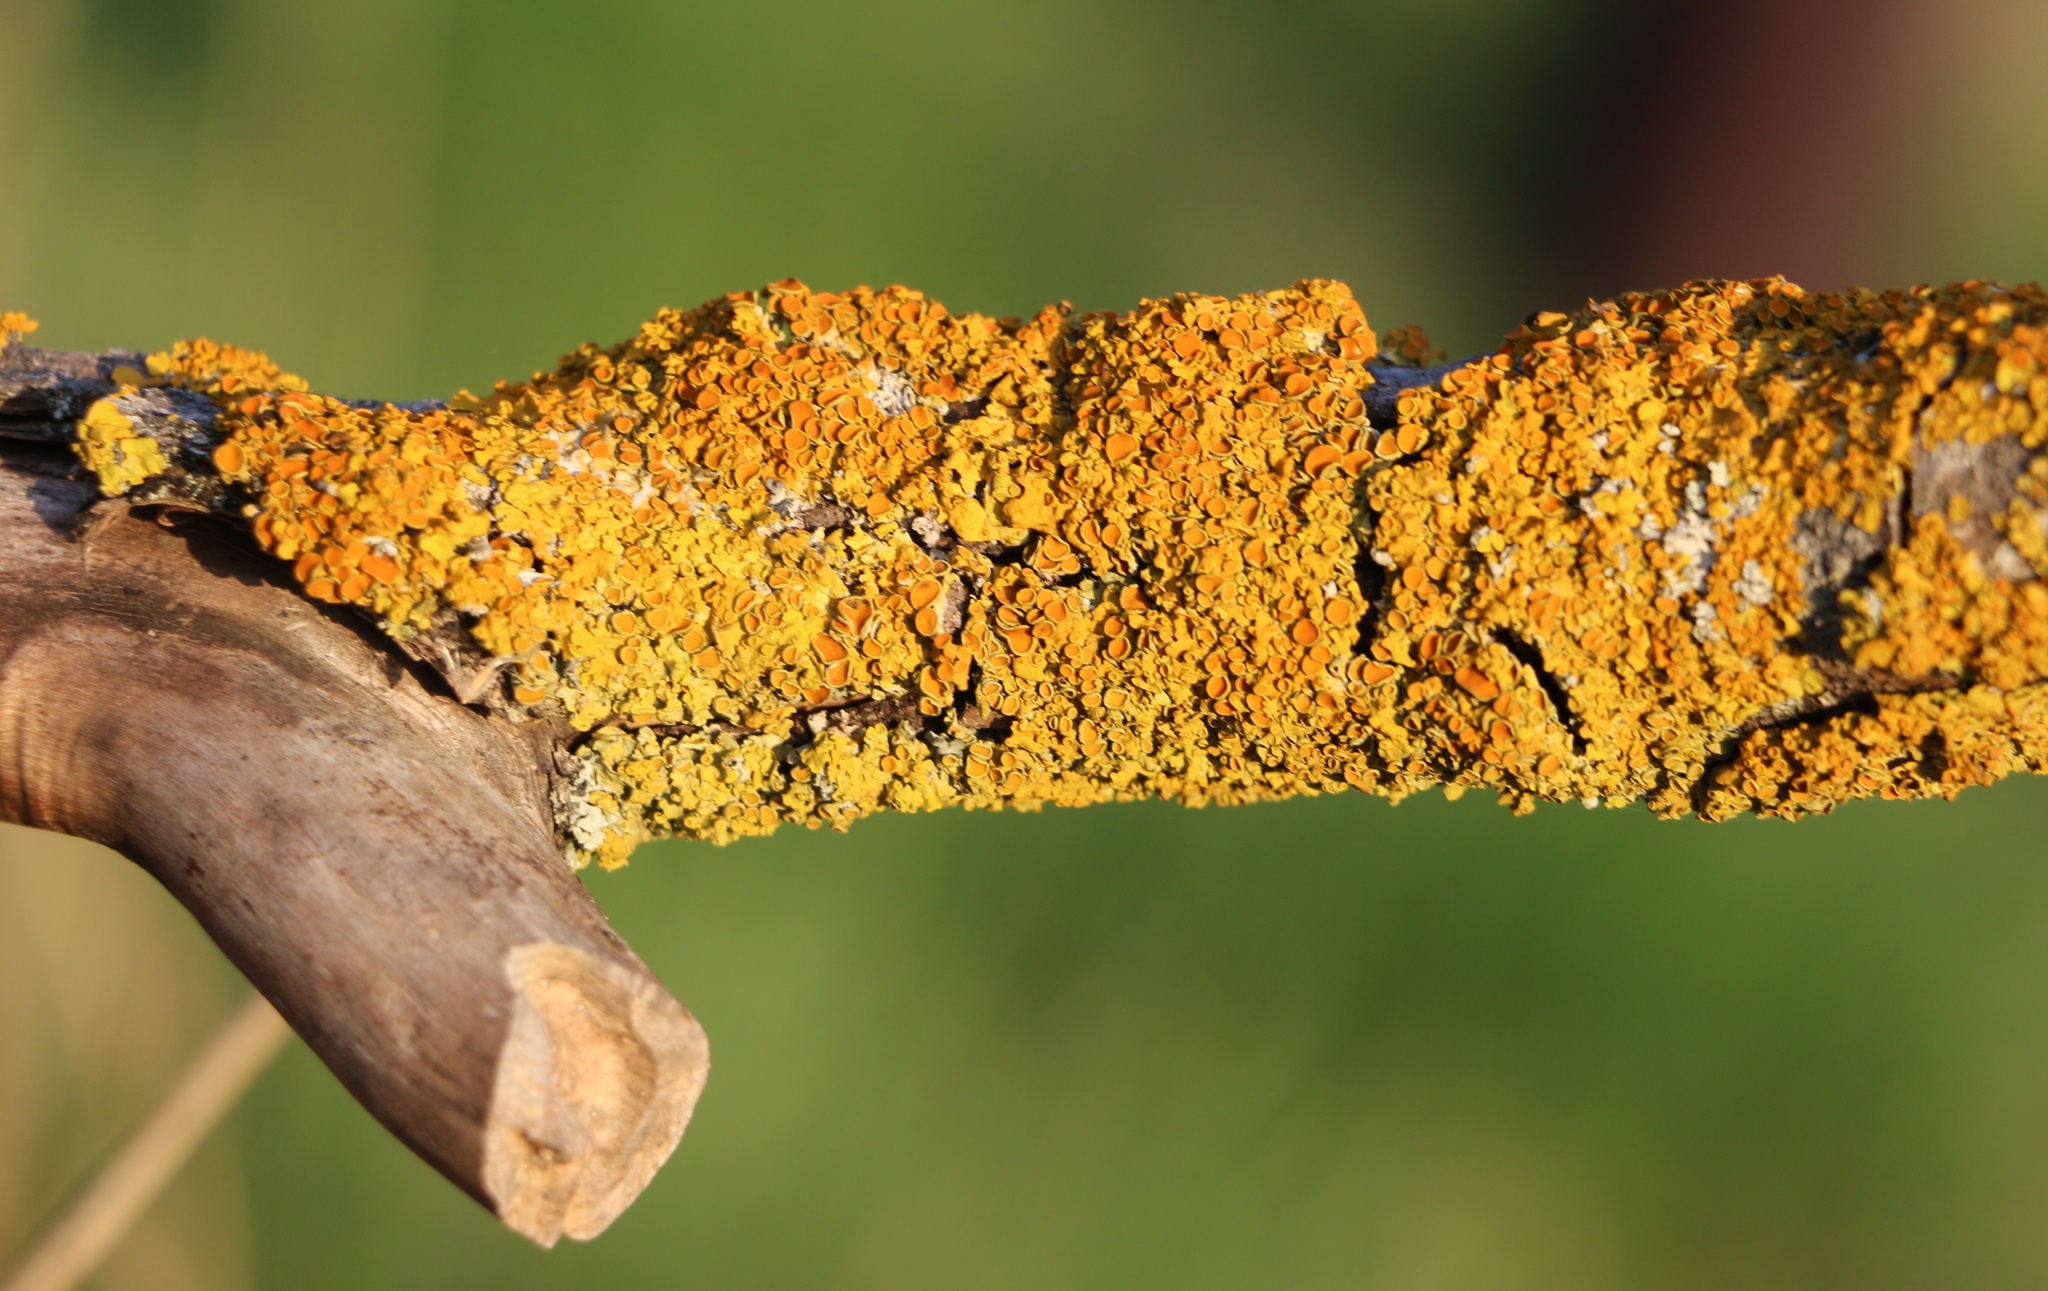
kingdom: Fungi
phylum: Ascomycota
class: Lecanoromycetes
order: Teloschistales
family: Teloschistaceae
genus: Xanthoria
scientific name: Xanthoria parietina
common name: Common orange lichen
